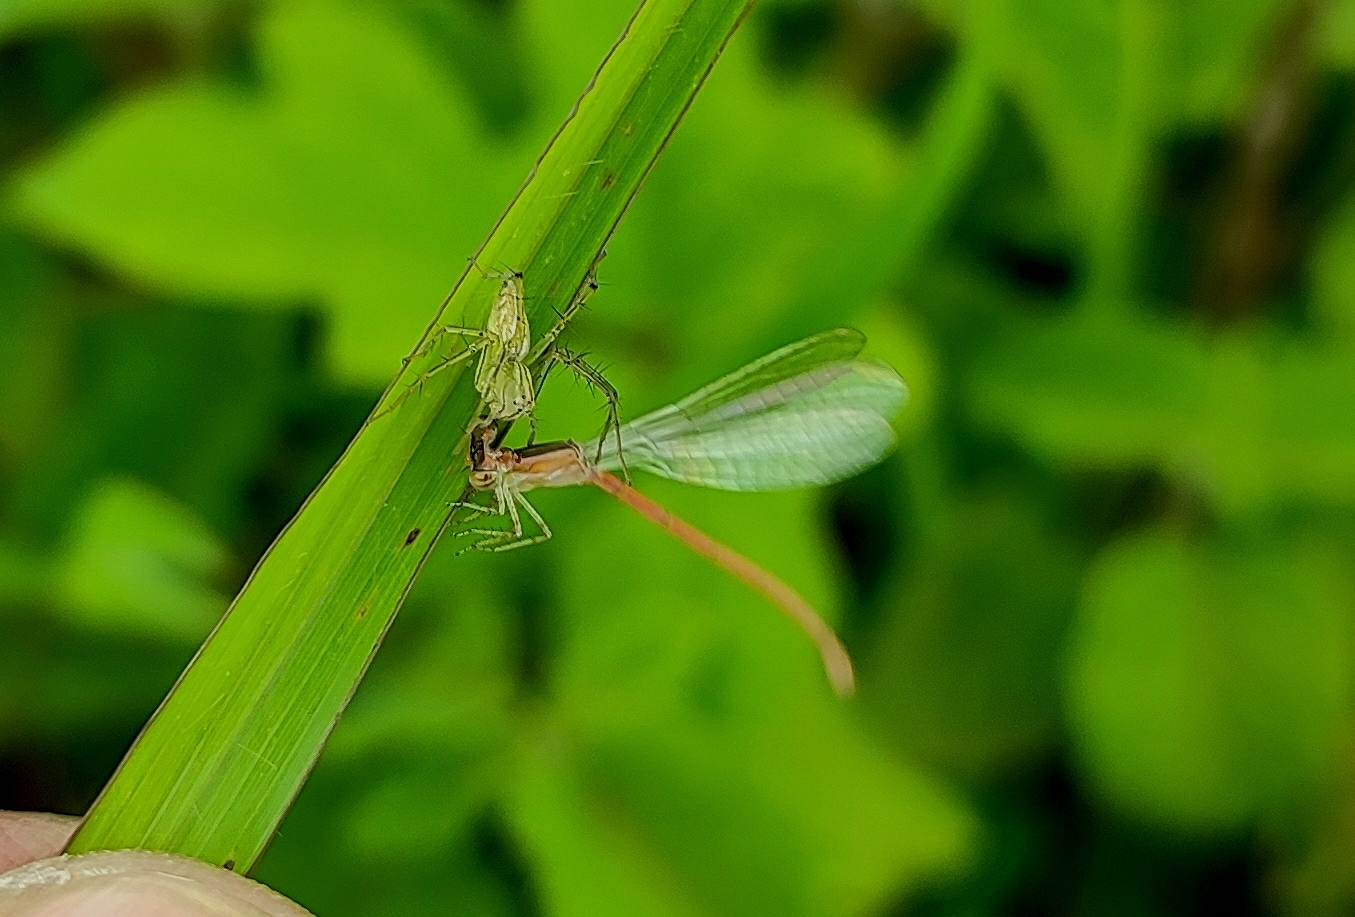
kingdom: Animalia
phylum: Arthropoda
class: Insecta
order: Odonata
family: Coenagrionidae
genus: Agriocnemis
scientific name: Agriocnemis pygmaea
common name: Pygmy wisp
